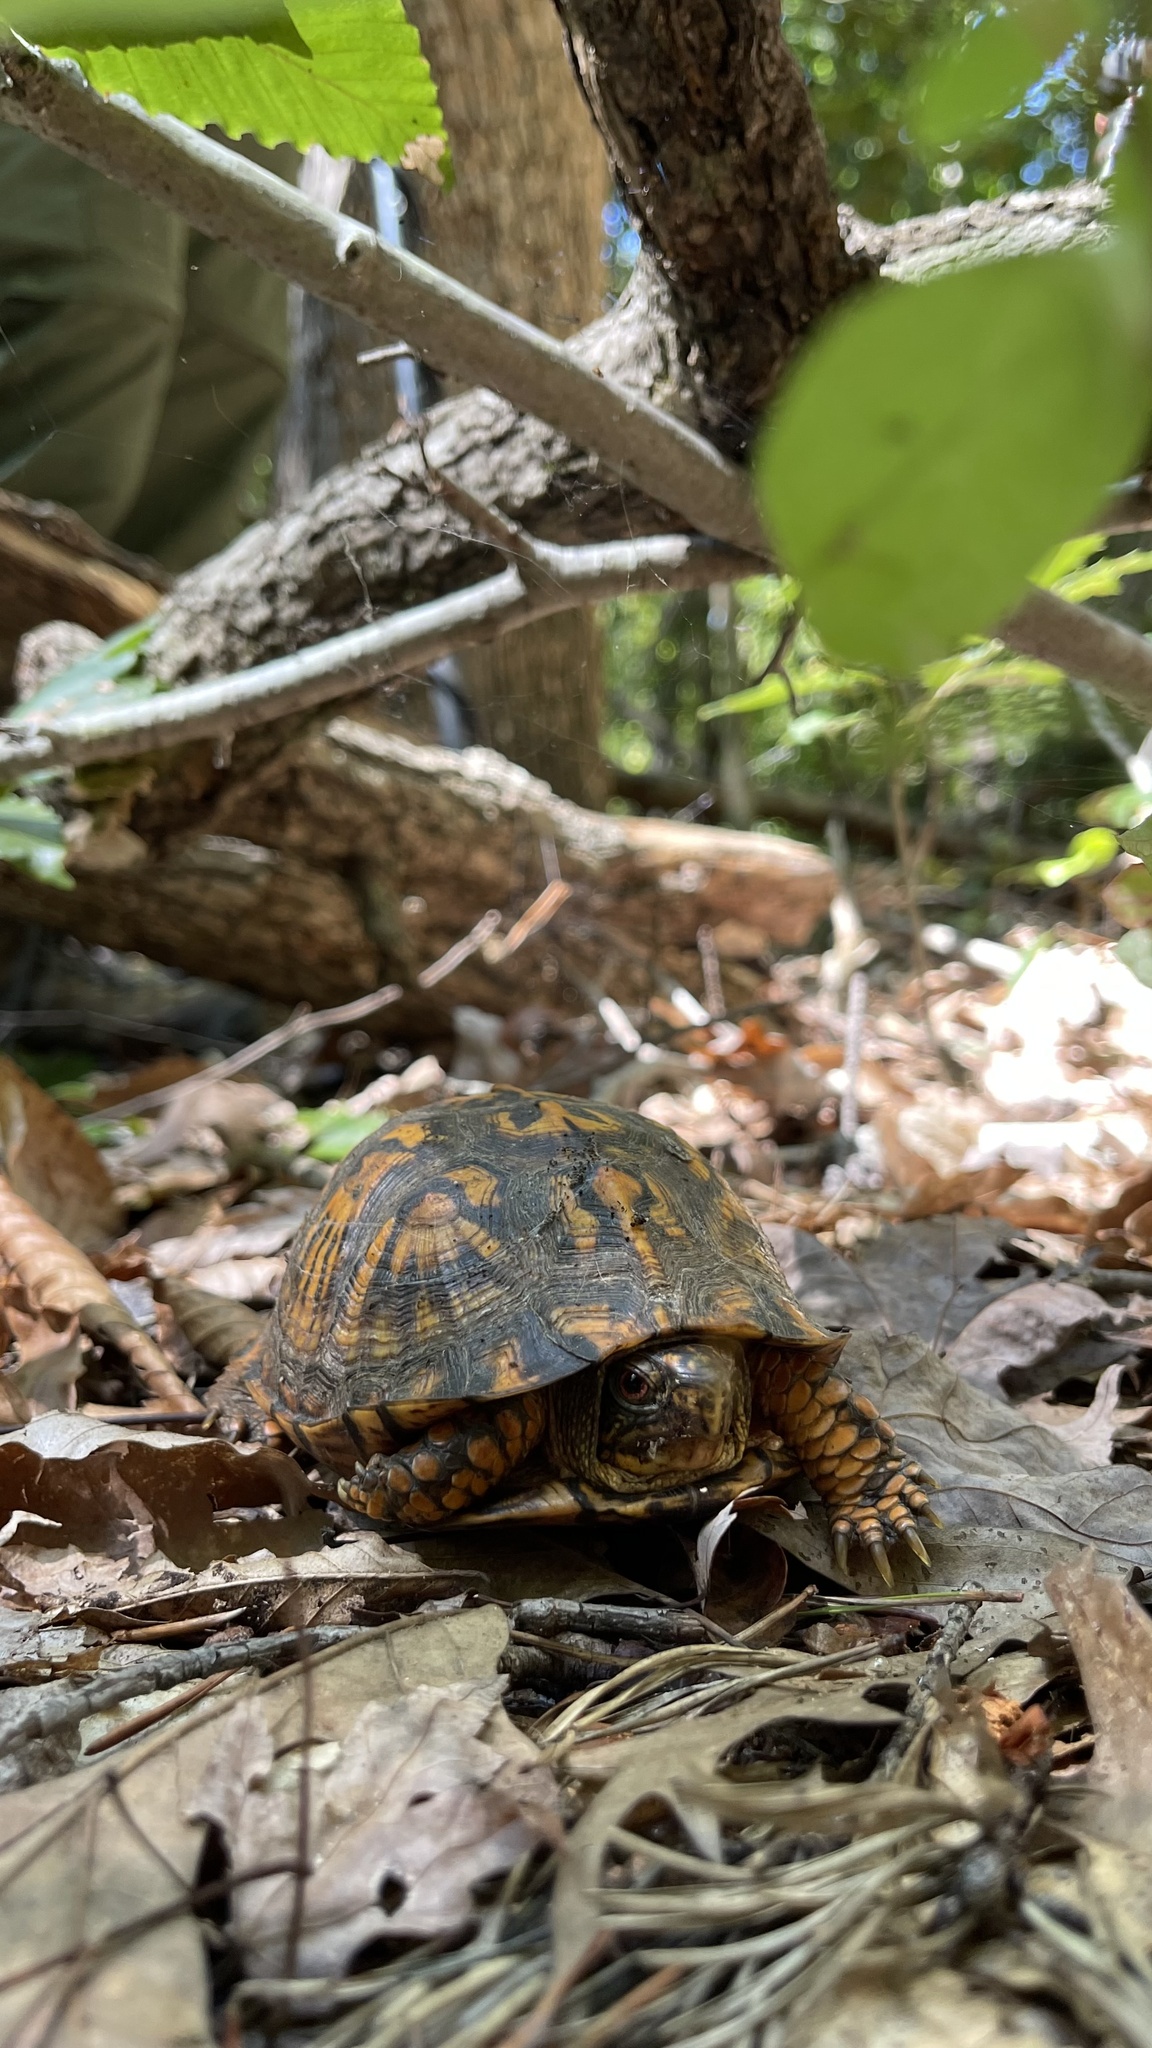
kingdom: Animalia
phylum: Chordata
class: Testudines
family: Emydidae
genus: Terrapene
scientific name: Terrapene carolina
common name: Common box turtle
